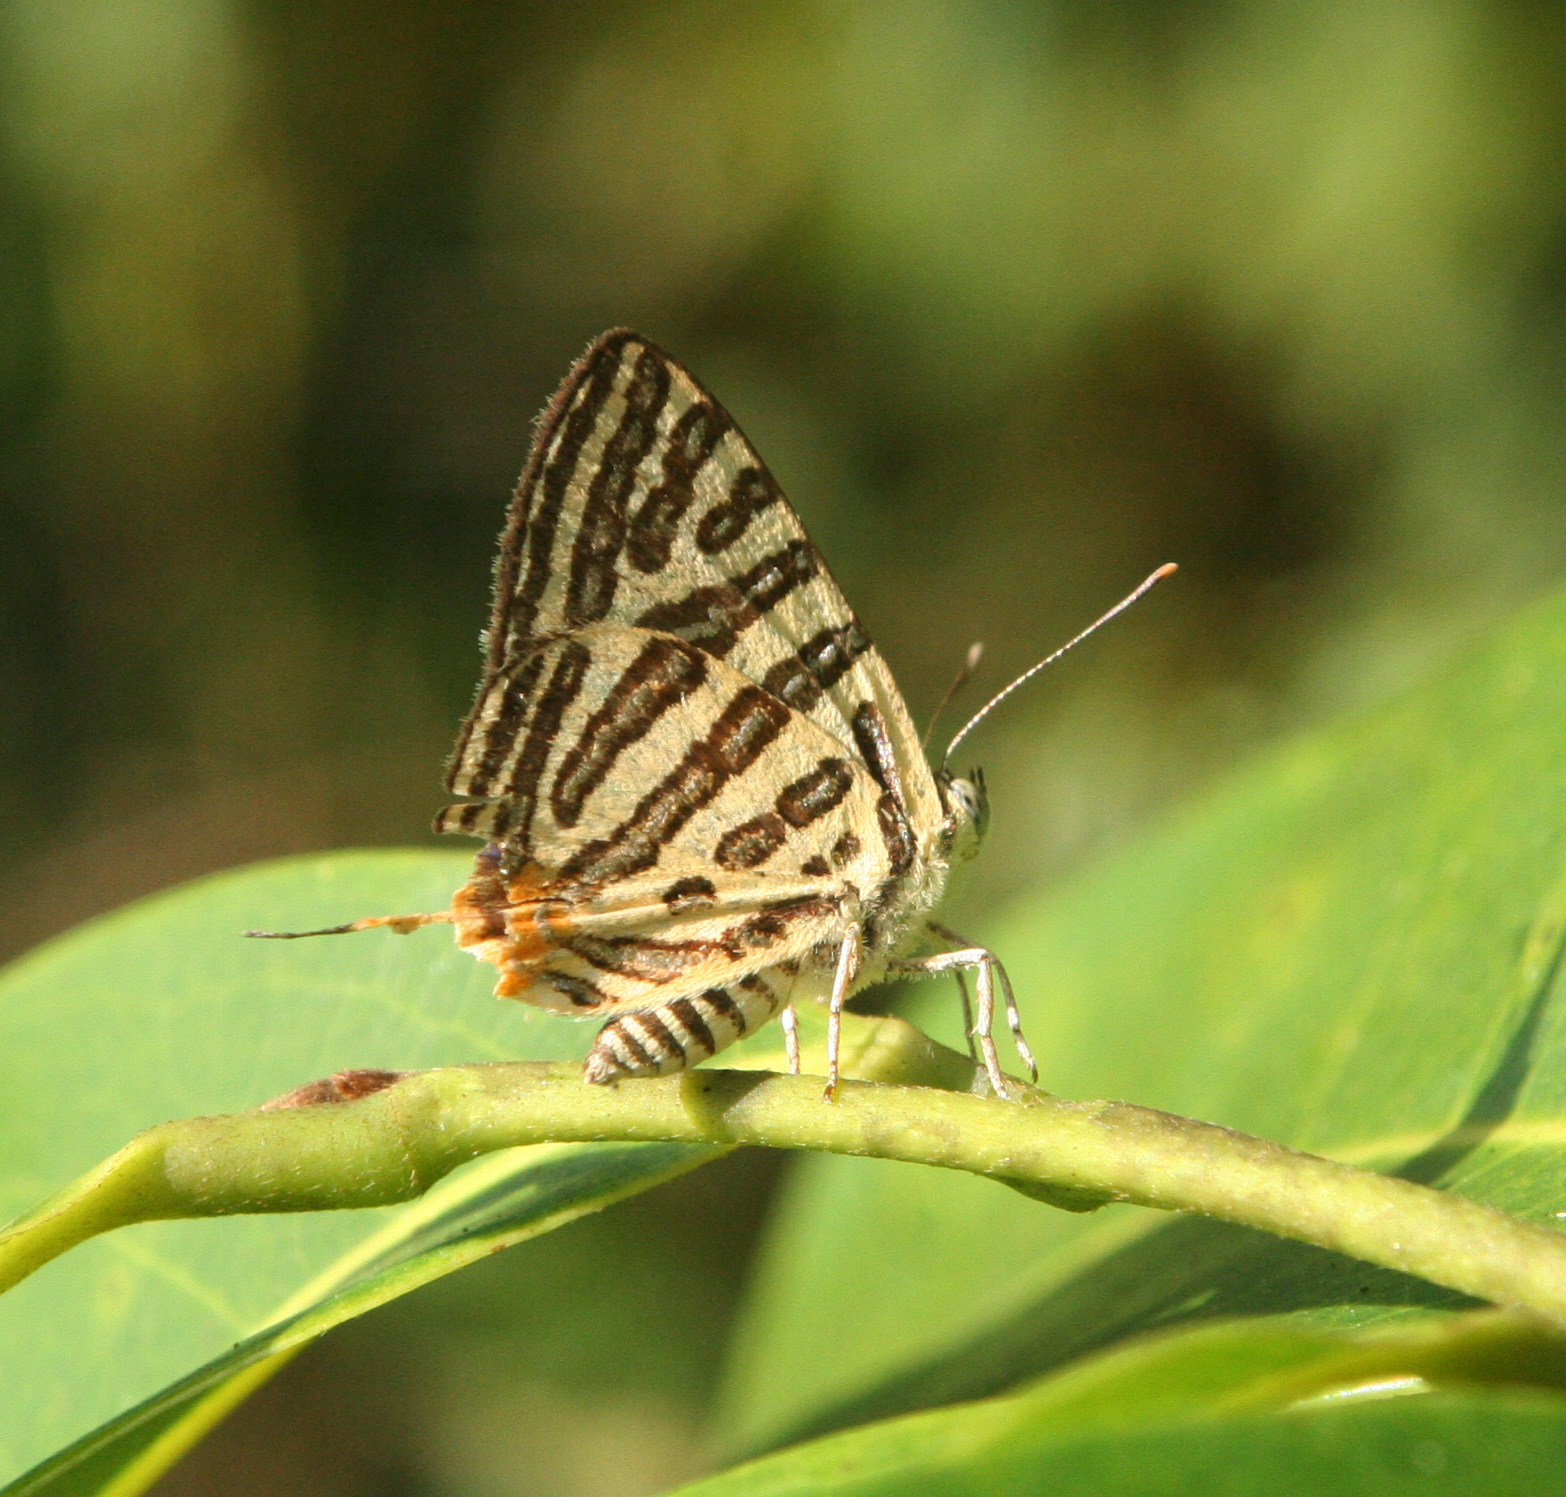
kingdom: Animalia
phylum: Arthropoda
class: Insecta
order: Lepidoptera
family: Lycaenidae
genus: Cigaritis
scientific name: Cigaritis syama
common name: Club silverline
